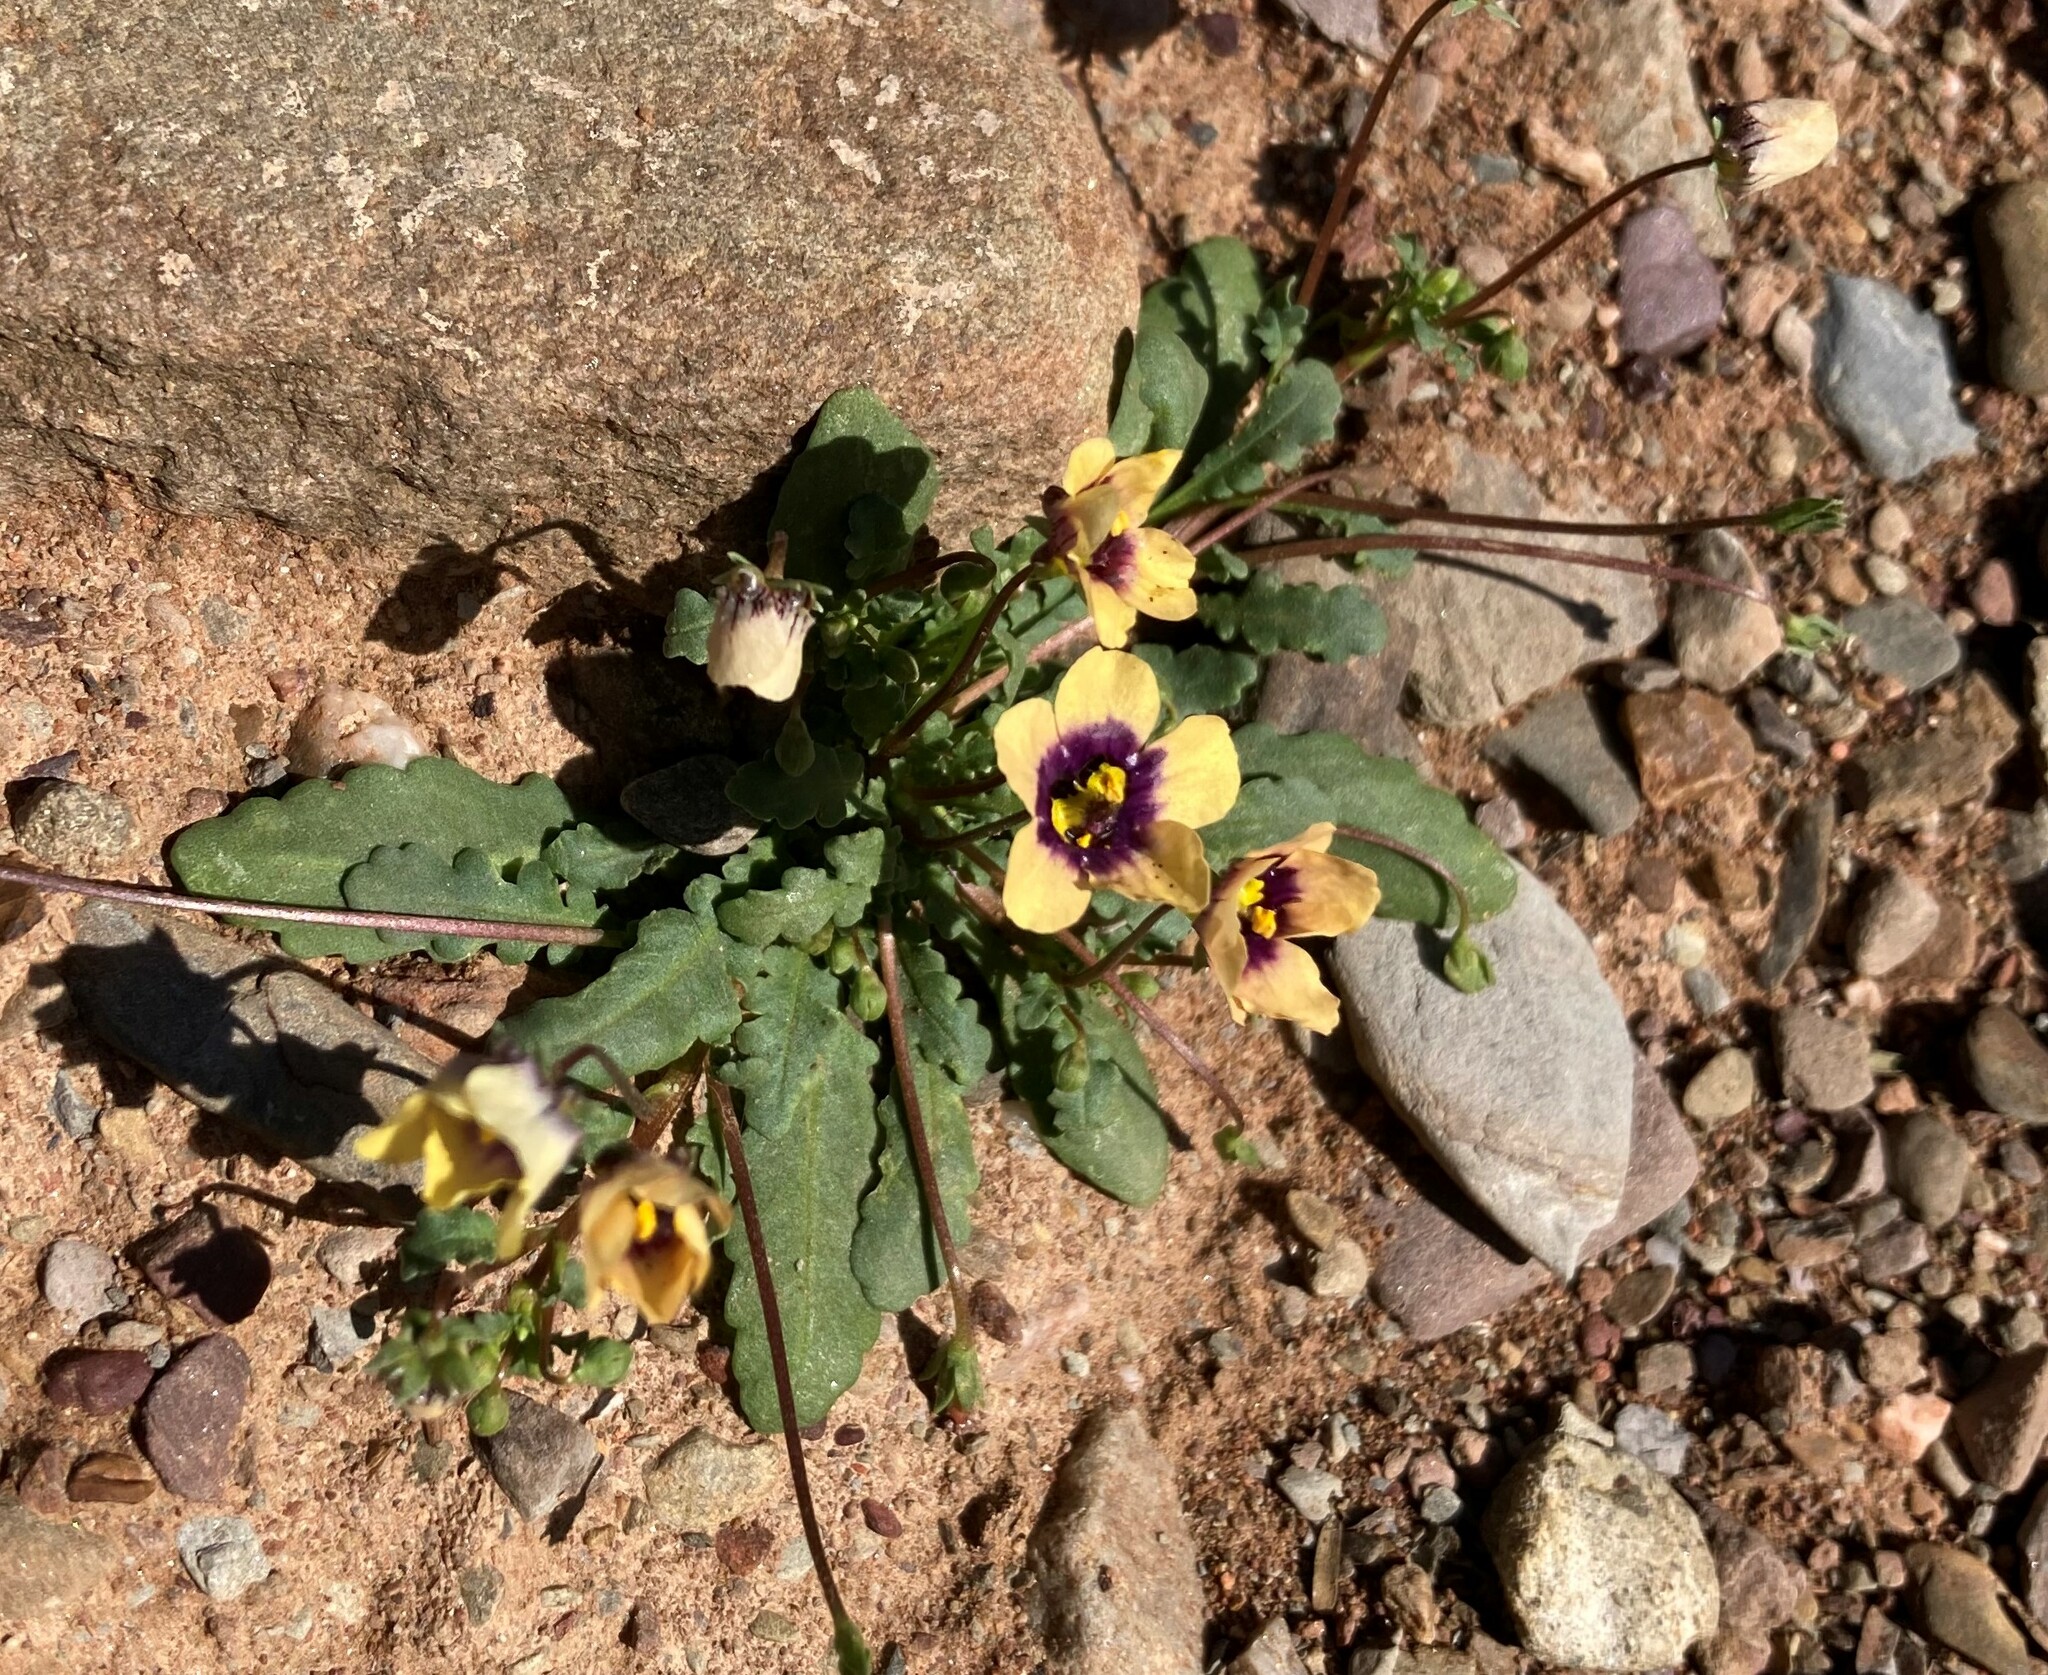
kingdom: Plantae
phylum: Tracheophyta
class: Magnoliopsida
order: Lamiales
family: Scrophulariaceae
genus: Diascia
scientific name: Diascia bicolor
